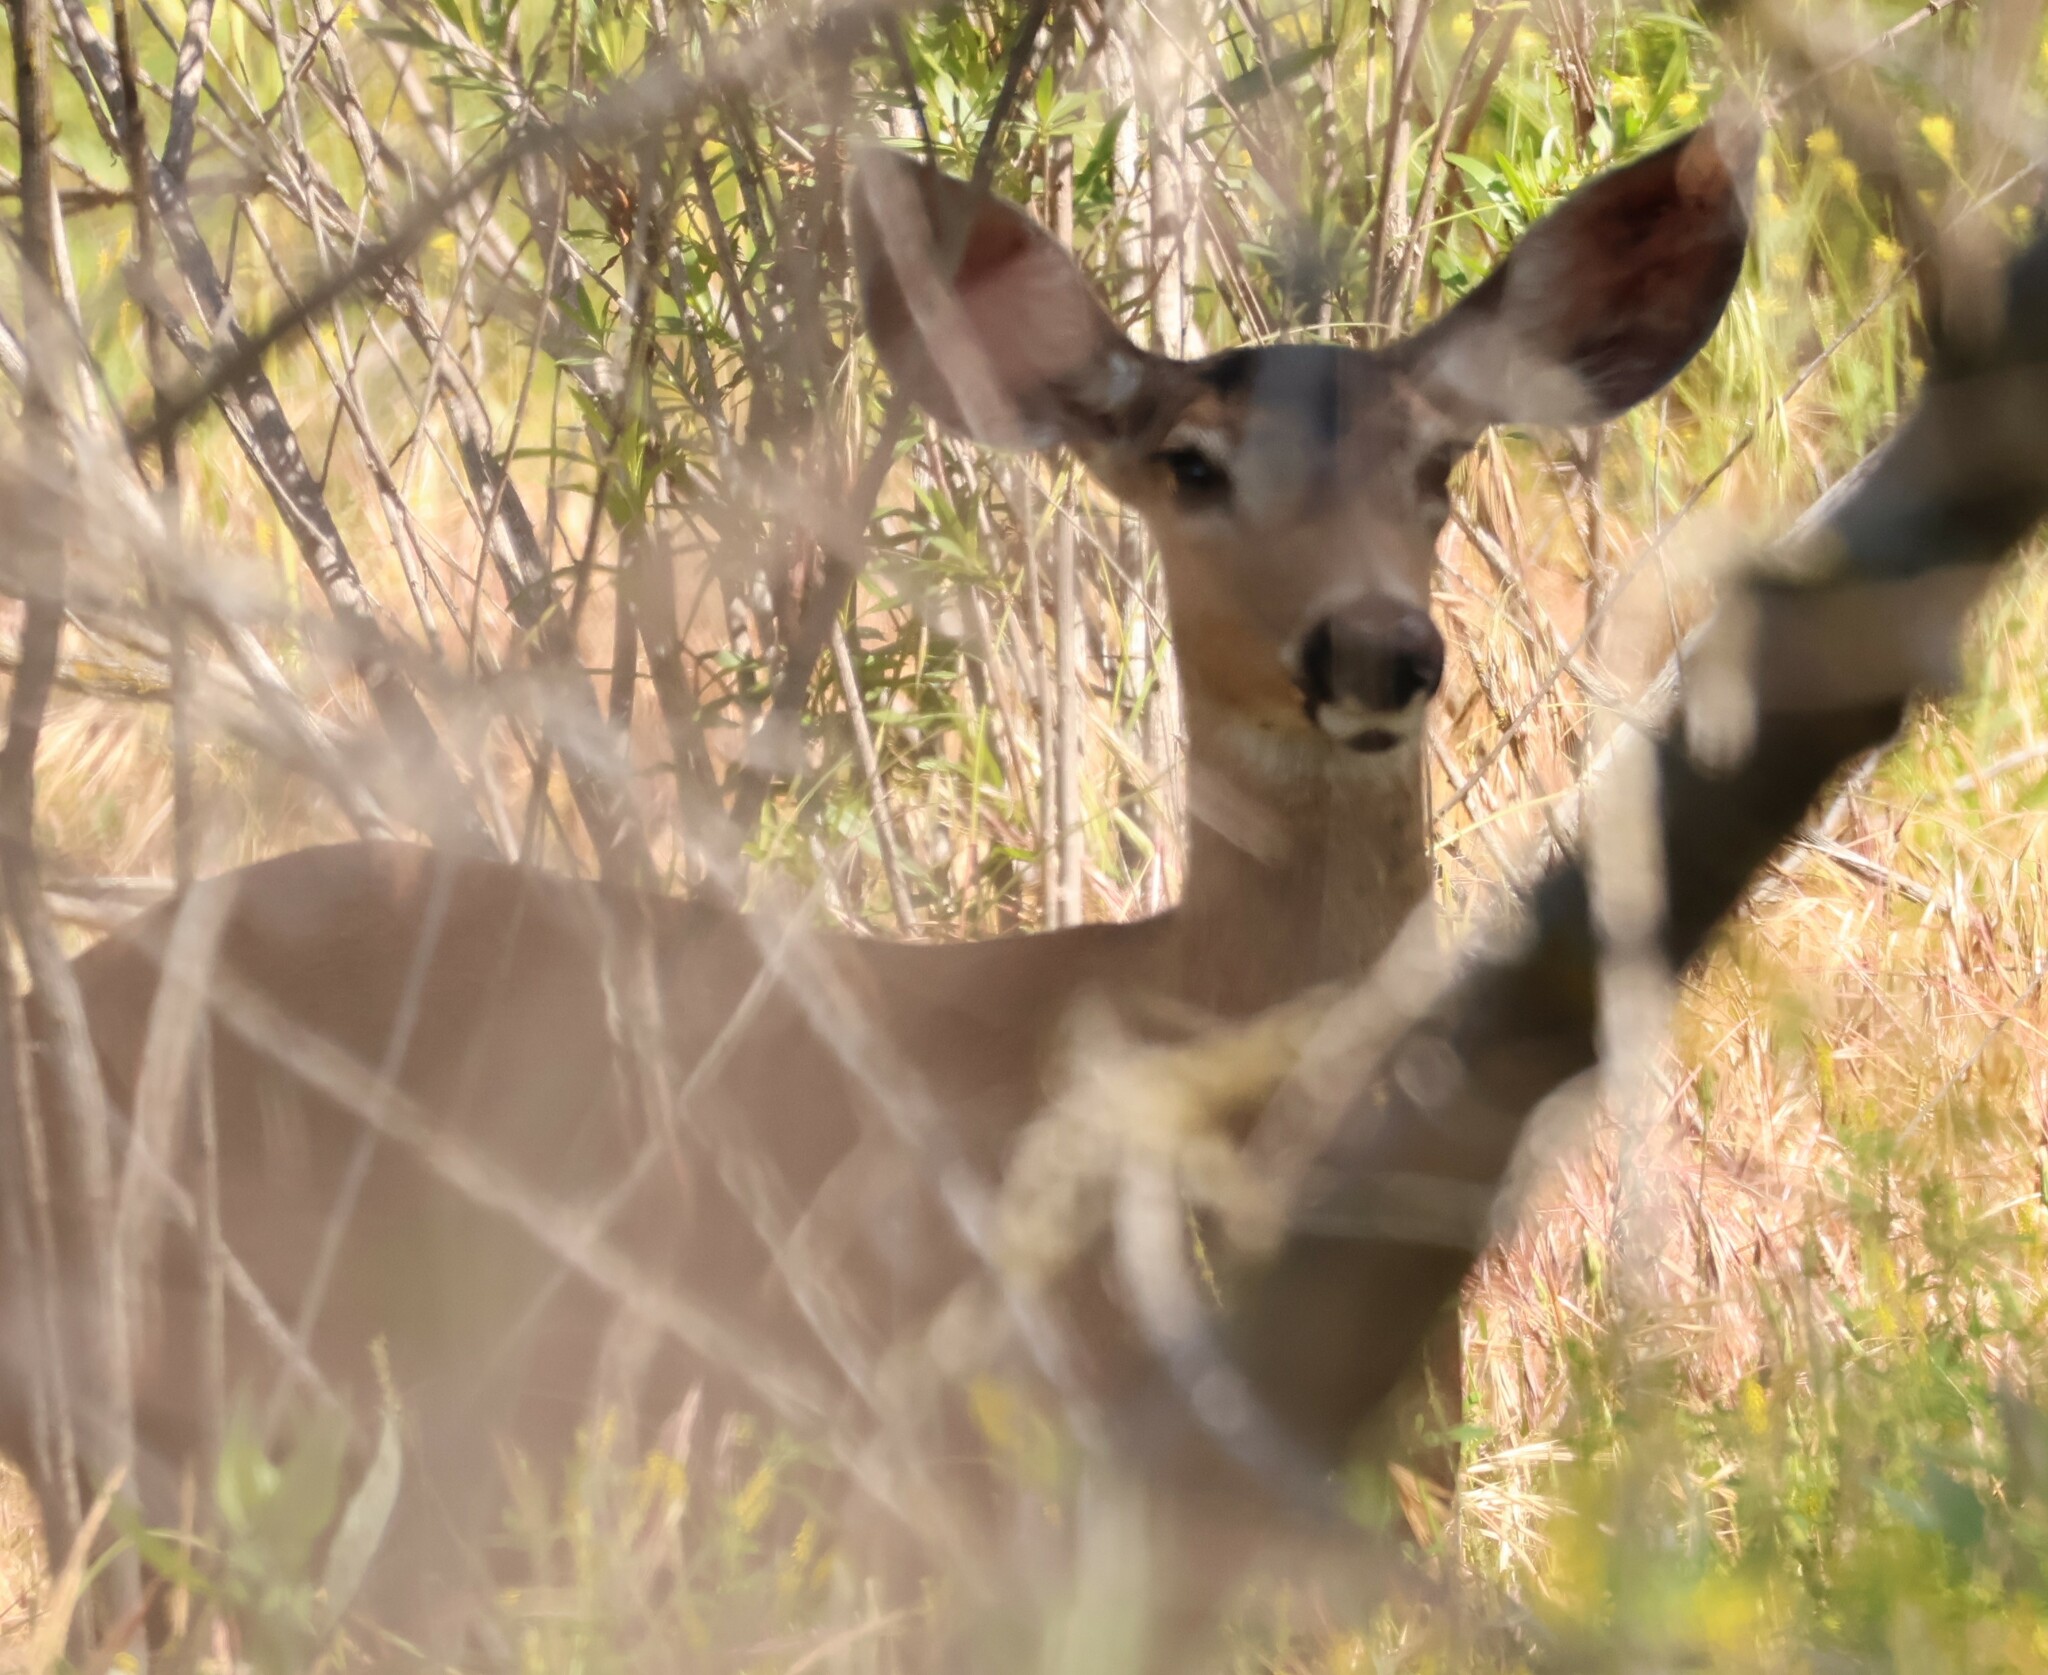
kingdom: Animalia
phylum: Chordata
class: Mammalia
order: Artiodactyla
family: Cervidae
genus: Odocoileus
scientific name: Odocoileus hemionus
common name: Mule deer
